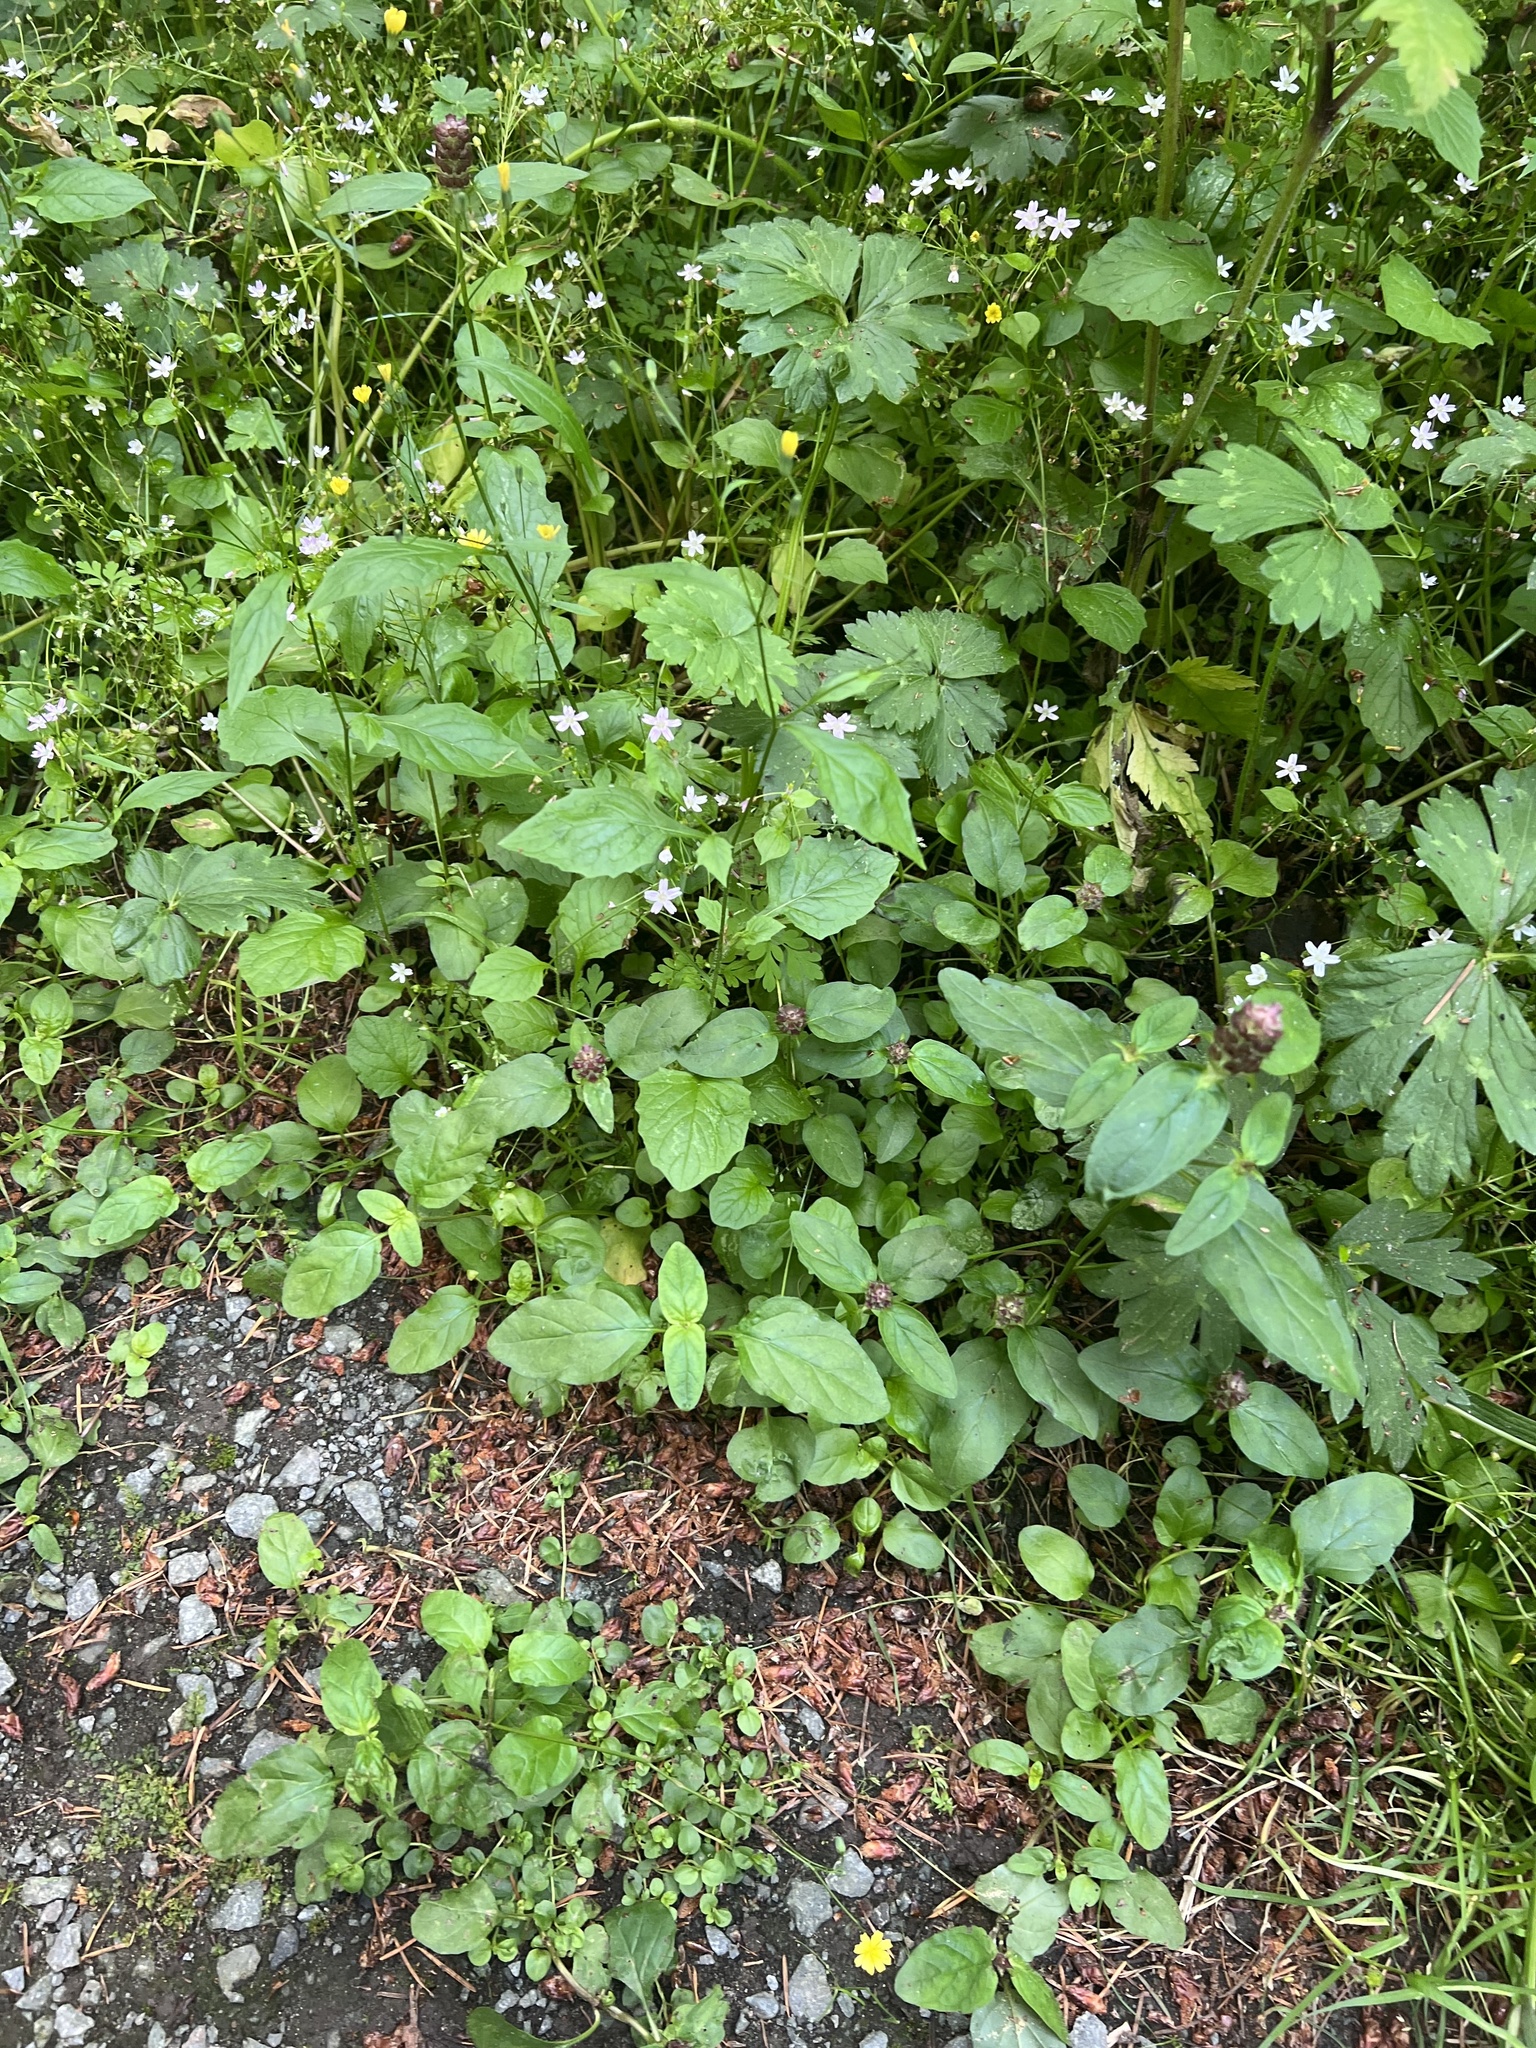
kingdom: Plantae
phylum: Tracheophyta
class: Magnoliopsida
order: Lamiales
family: Lamiaceae
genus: Prunella
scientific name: Prunella vulgaris
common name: Heal-all
